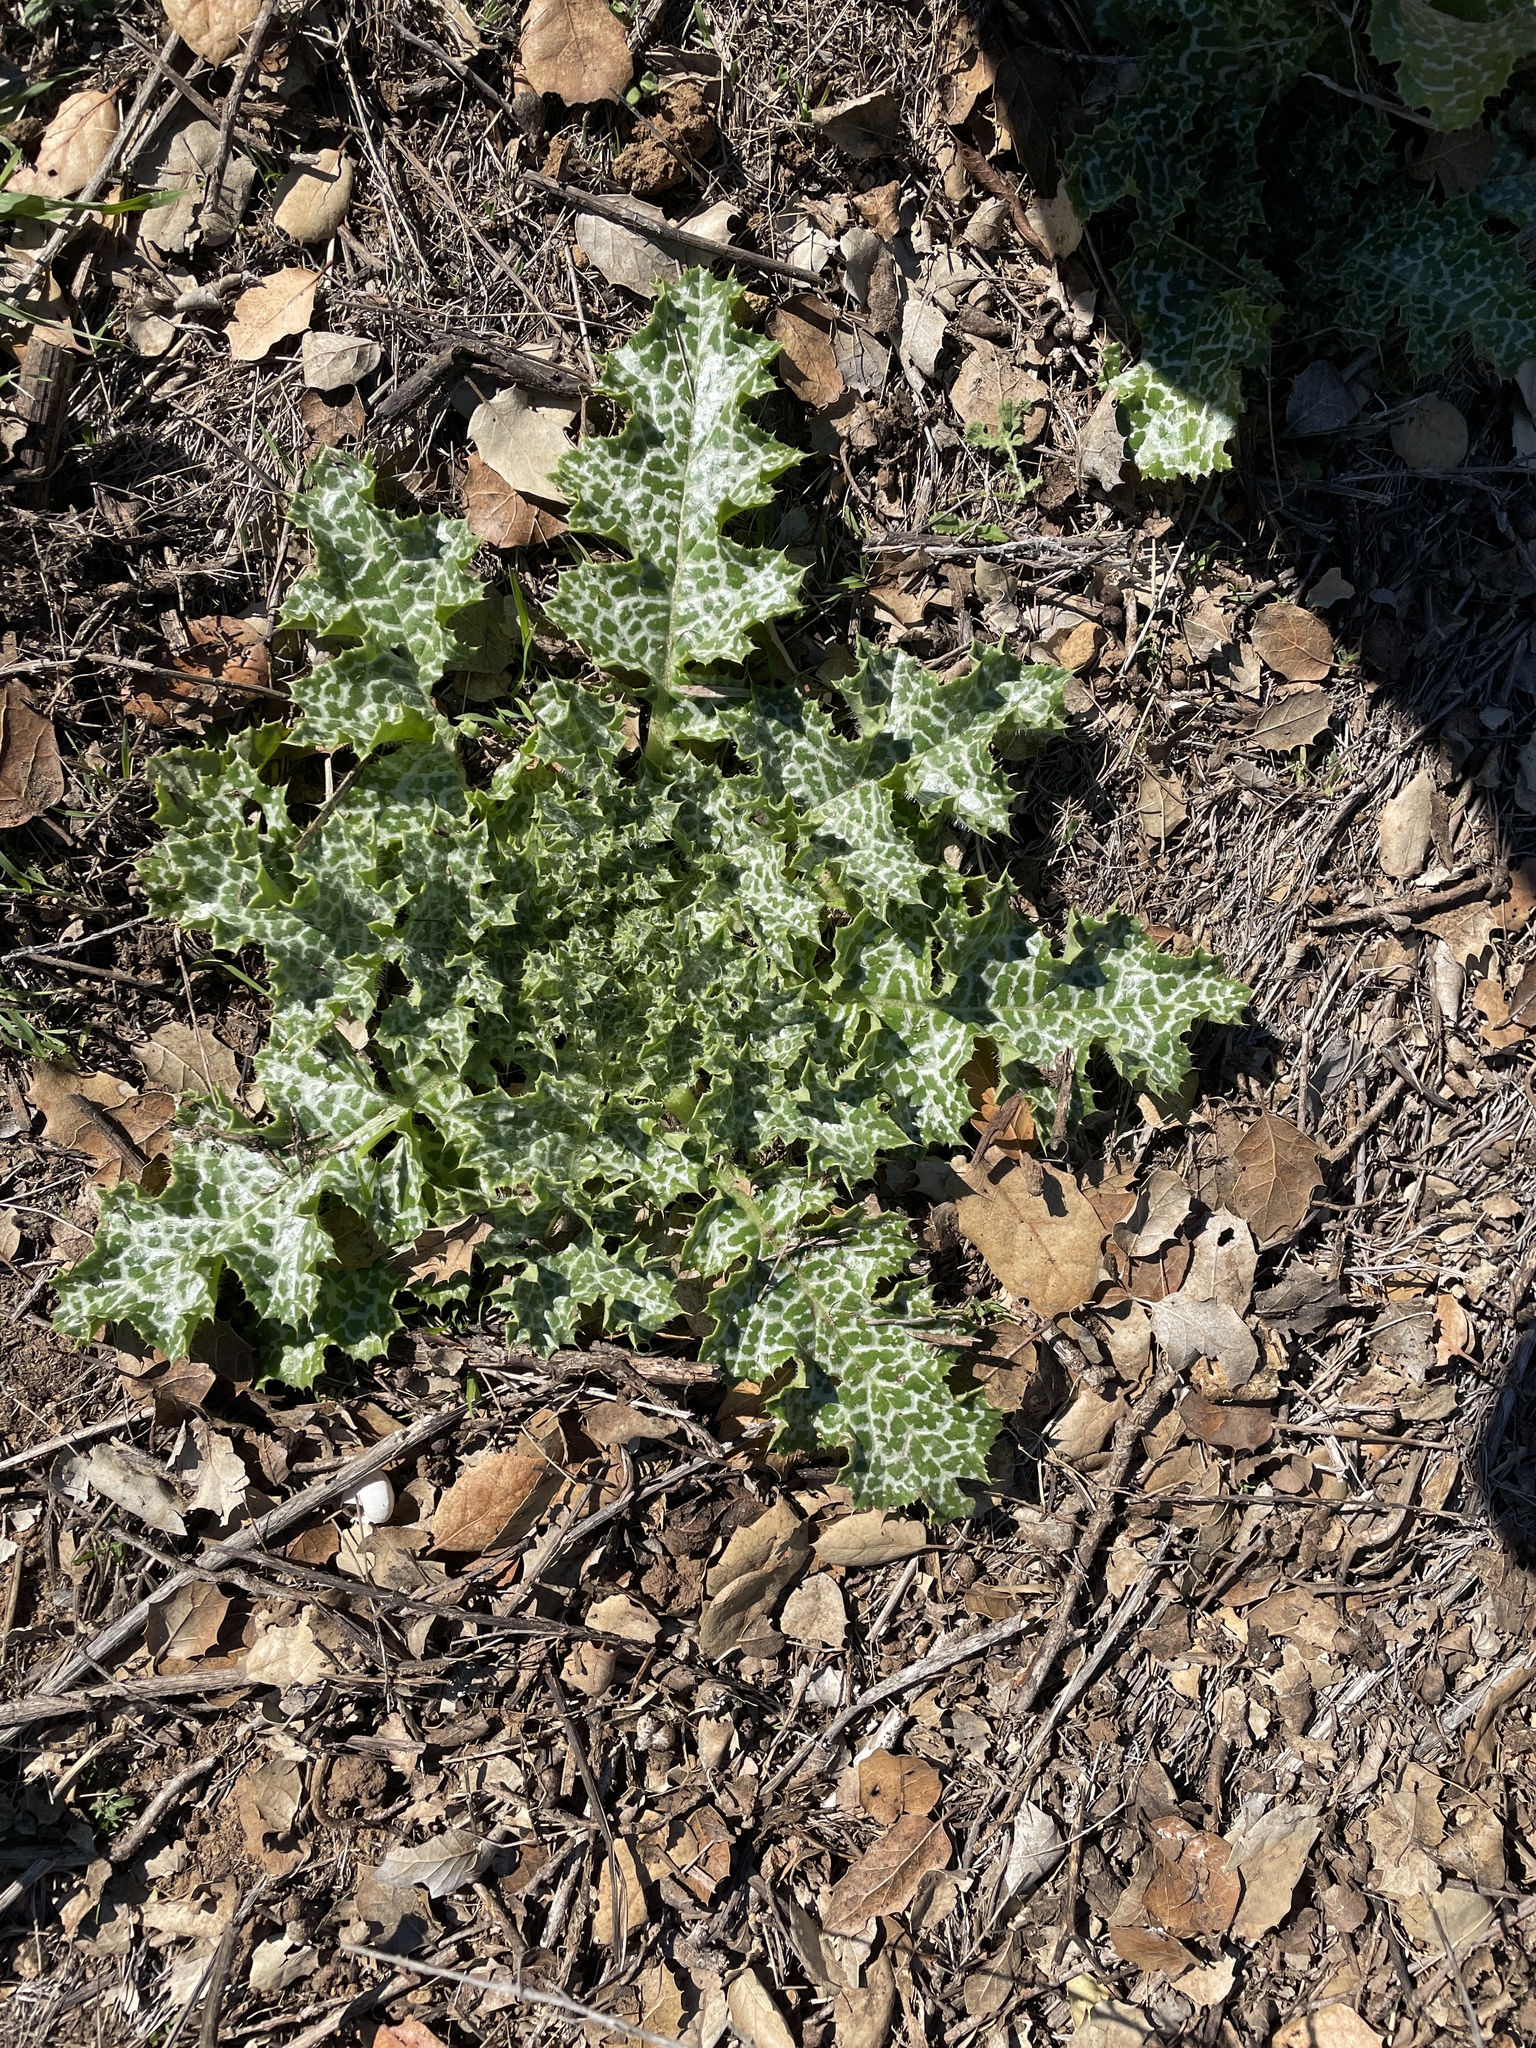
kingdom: Plantae
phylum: Tracheophyta
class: Magnoliopsida
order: Asterales
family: Asteraceae
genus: Silybum
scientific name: Silybum marianum
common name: Milk thistle
